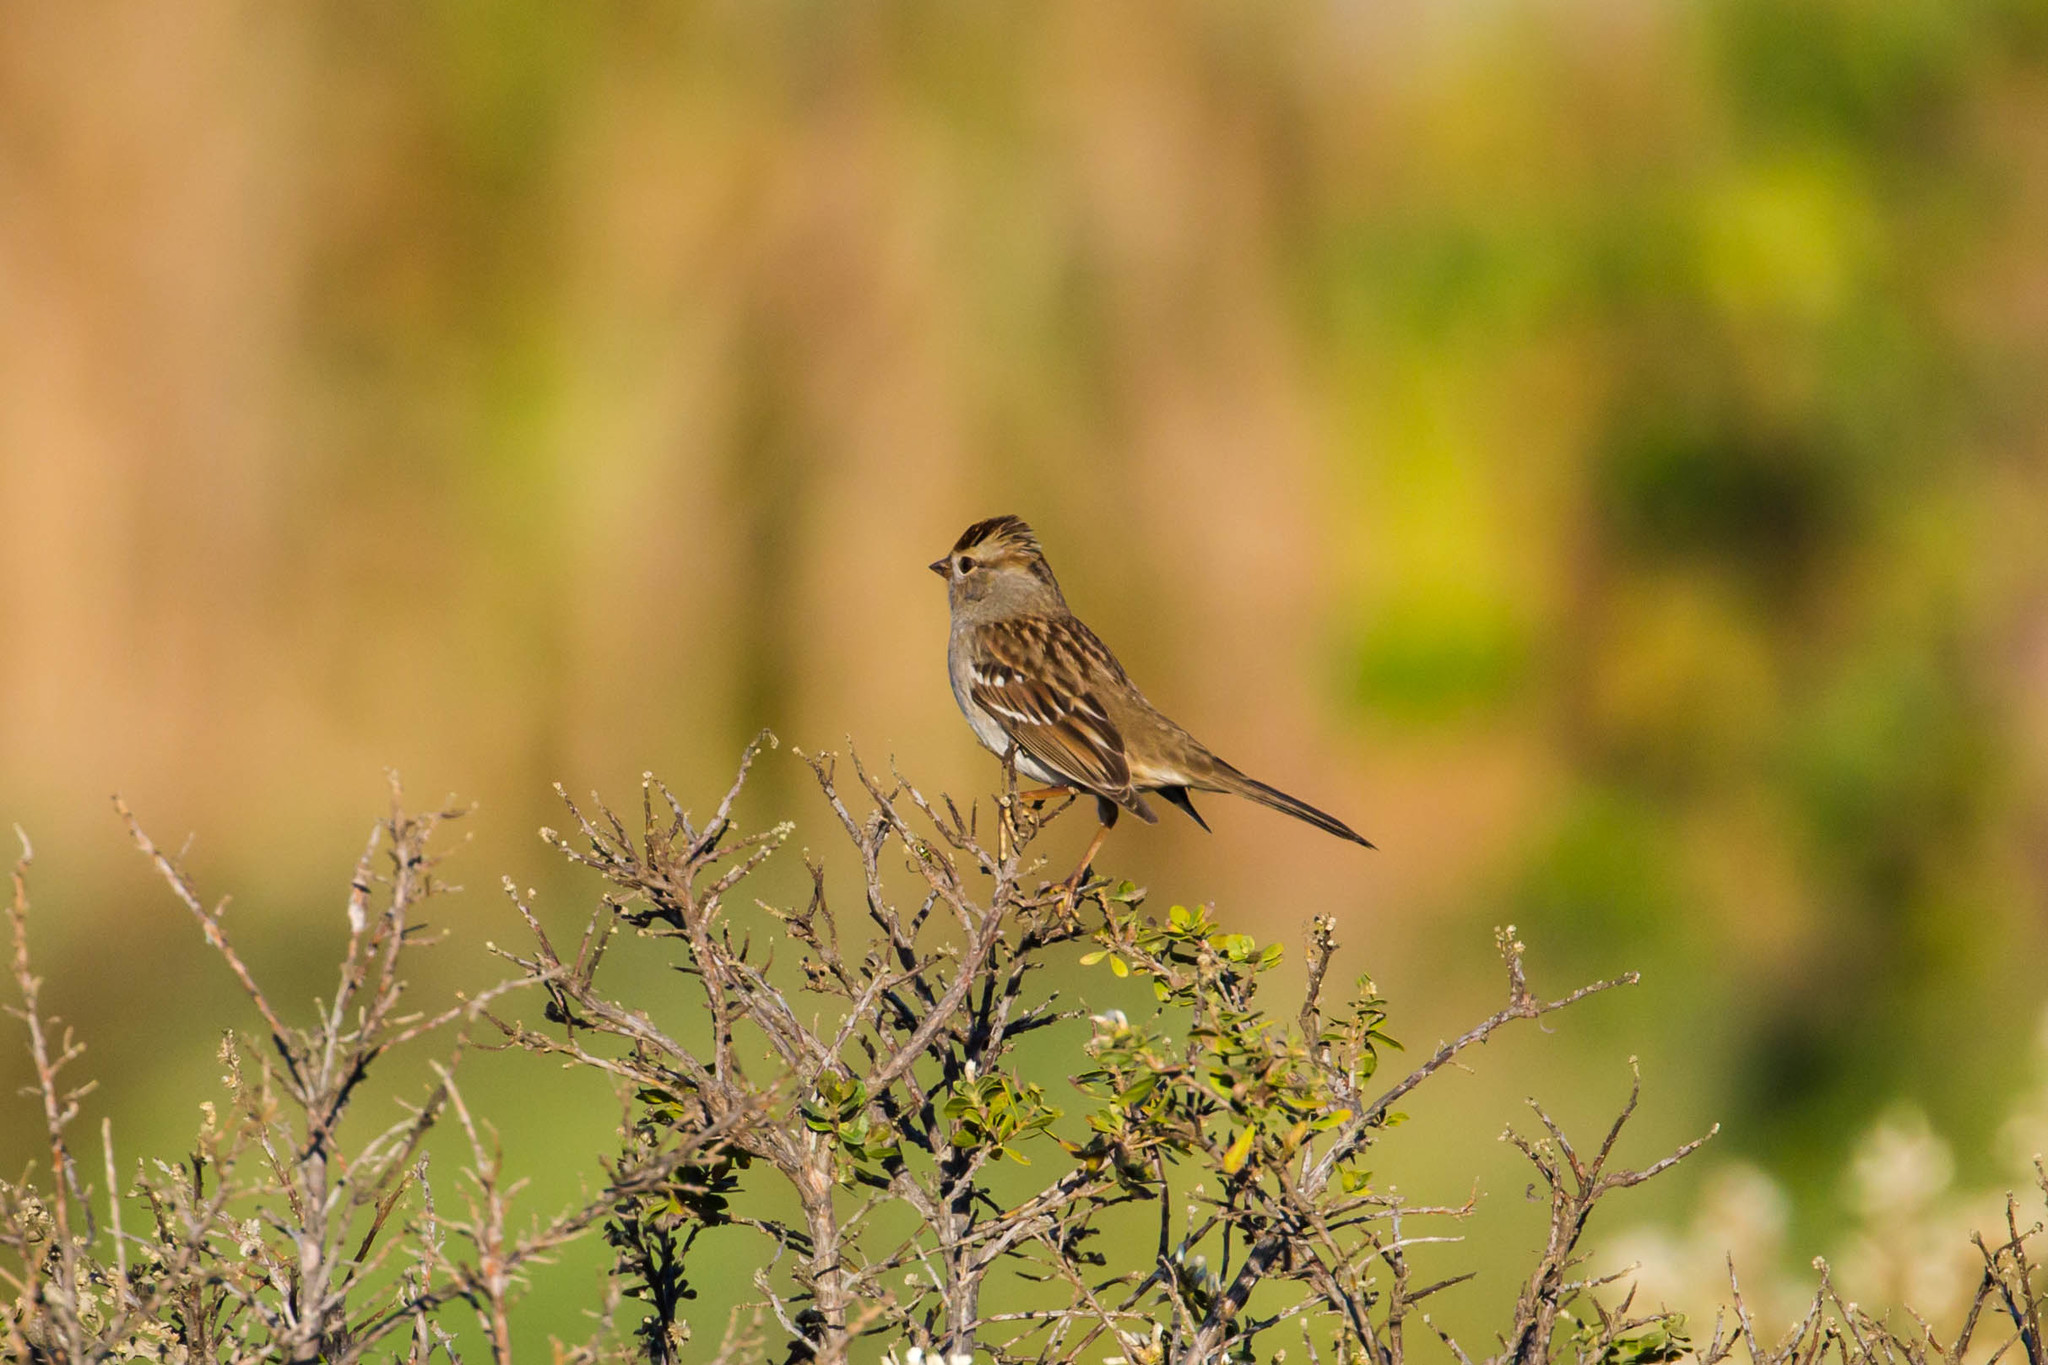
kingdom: Animalia
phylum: Chordata
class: Aves
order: Passeriformes
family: Passerellidae
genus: Zonotrichia
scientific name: Zonotrichia leucophrys
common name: White-crowned sparrow
